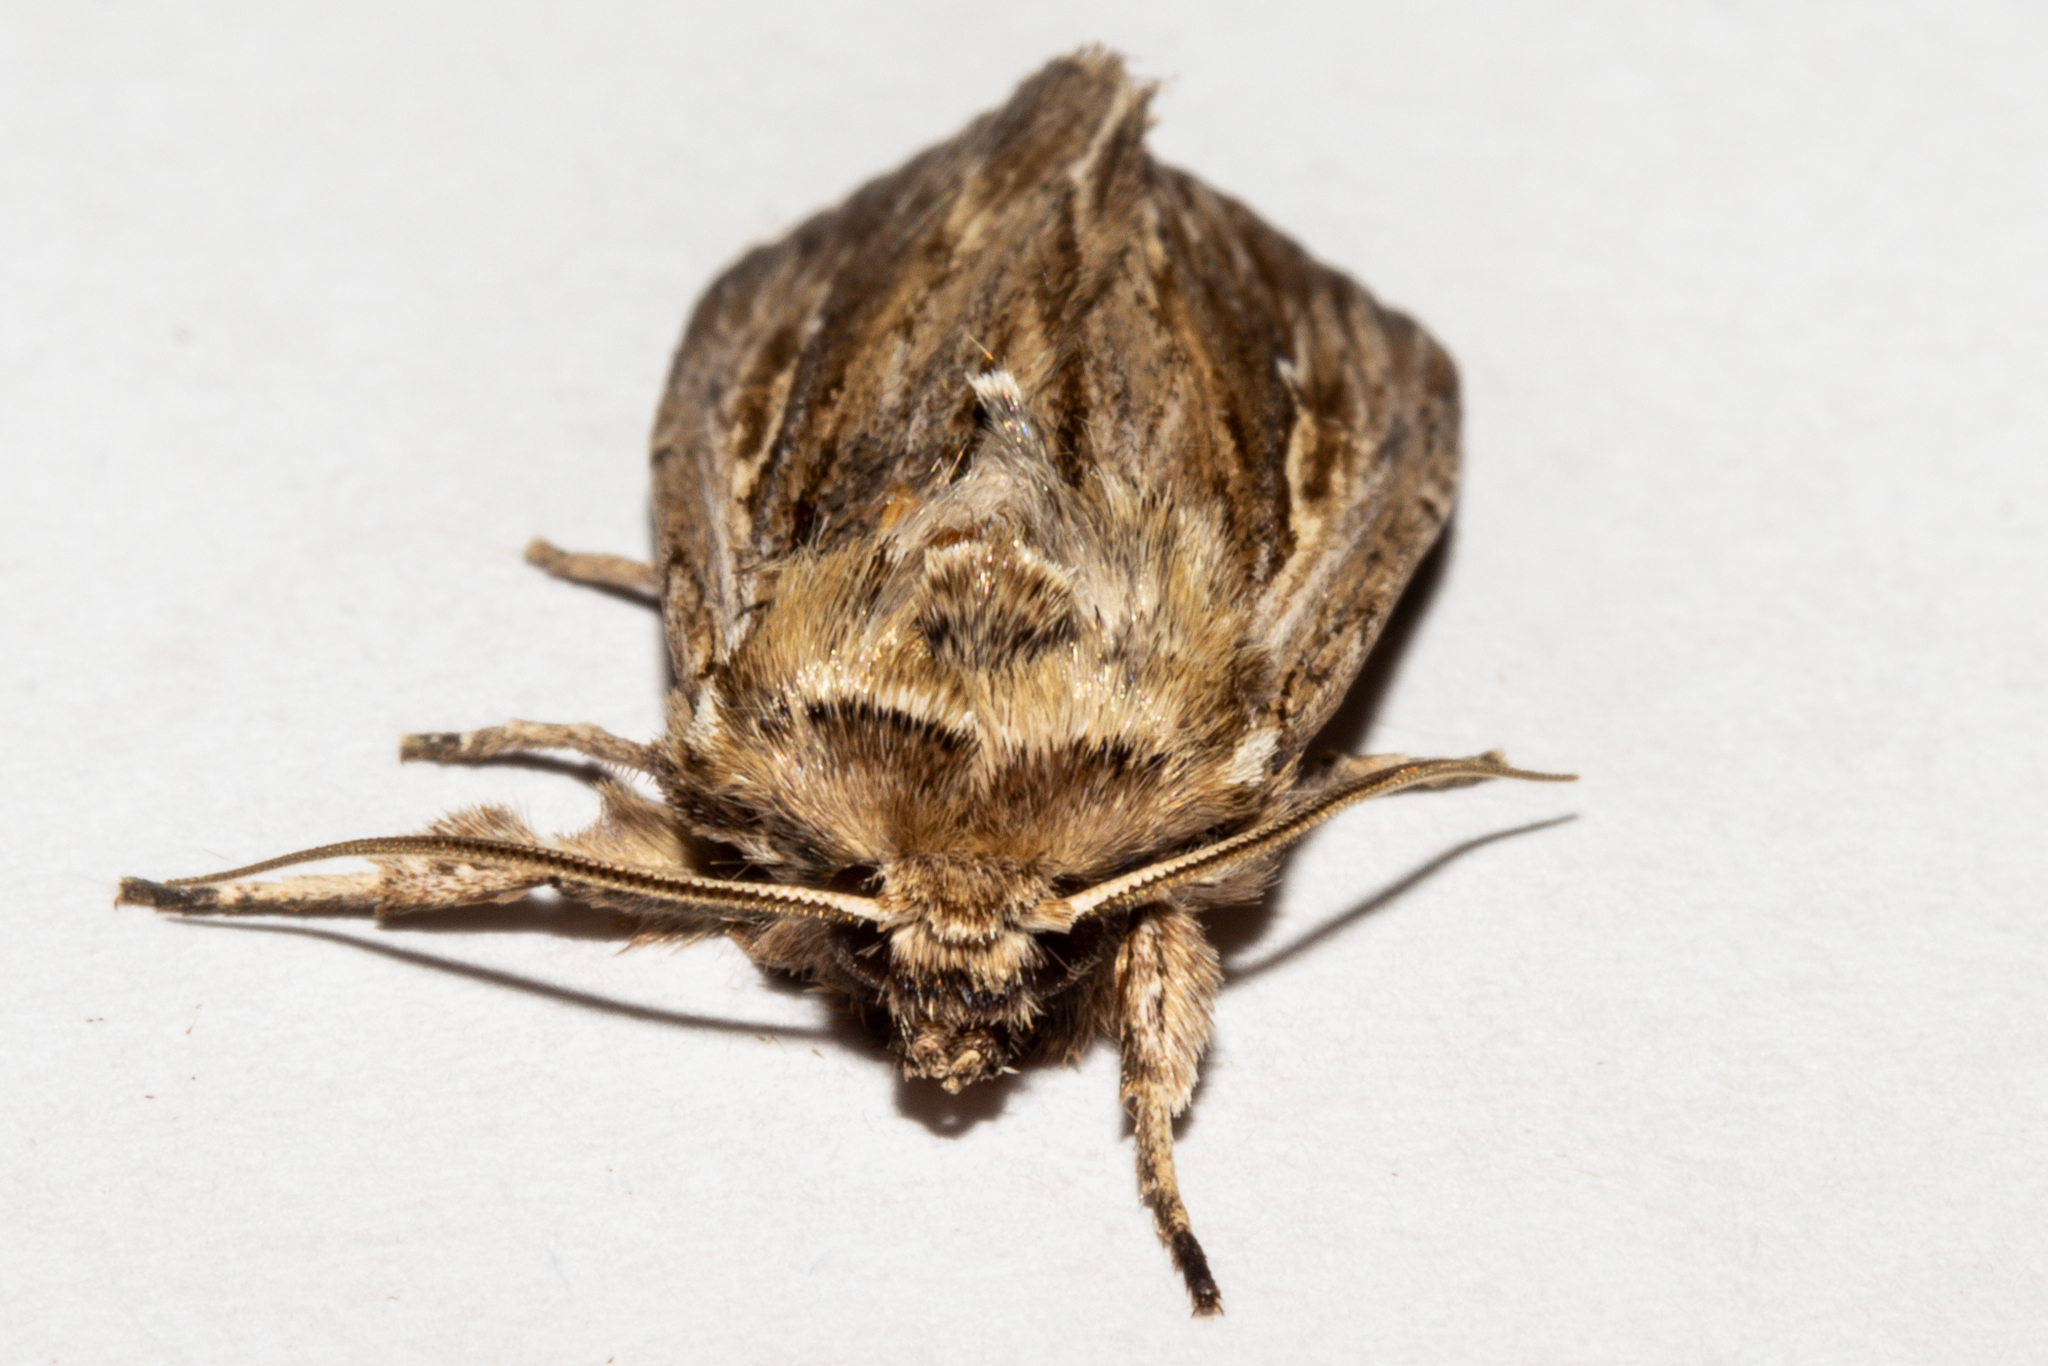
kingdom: Animalia
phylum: Arthropoda
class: Insecta
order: Lepidoptera
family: Noctuidae
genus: Persectania
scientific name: Persectania aversa
